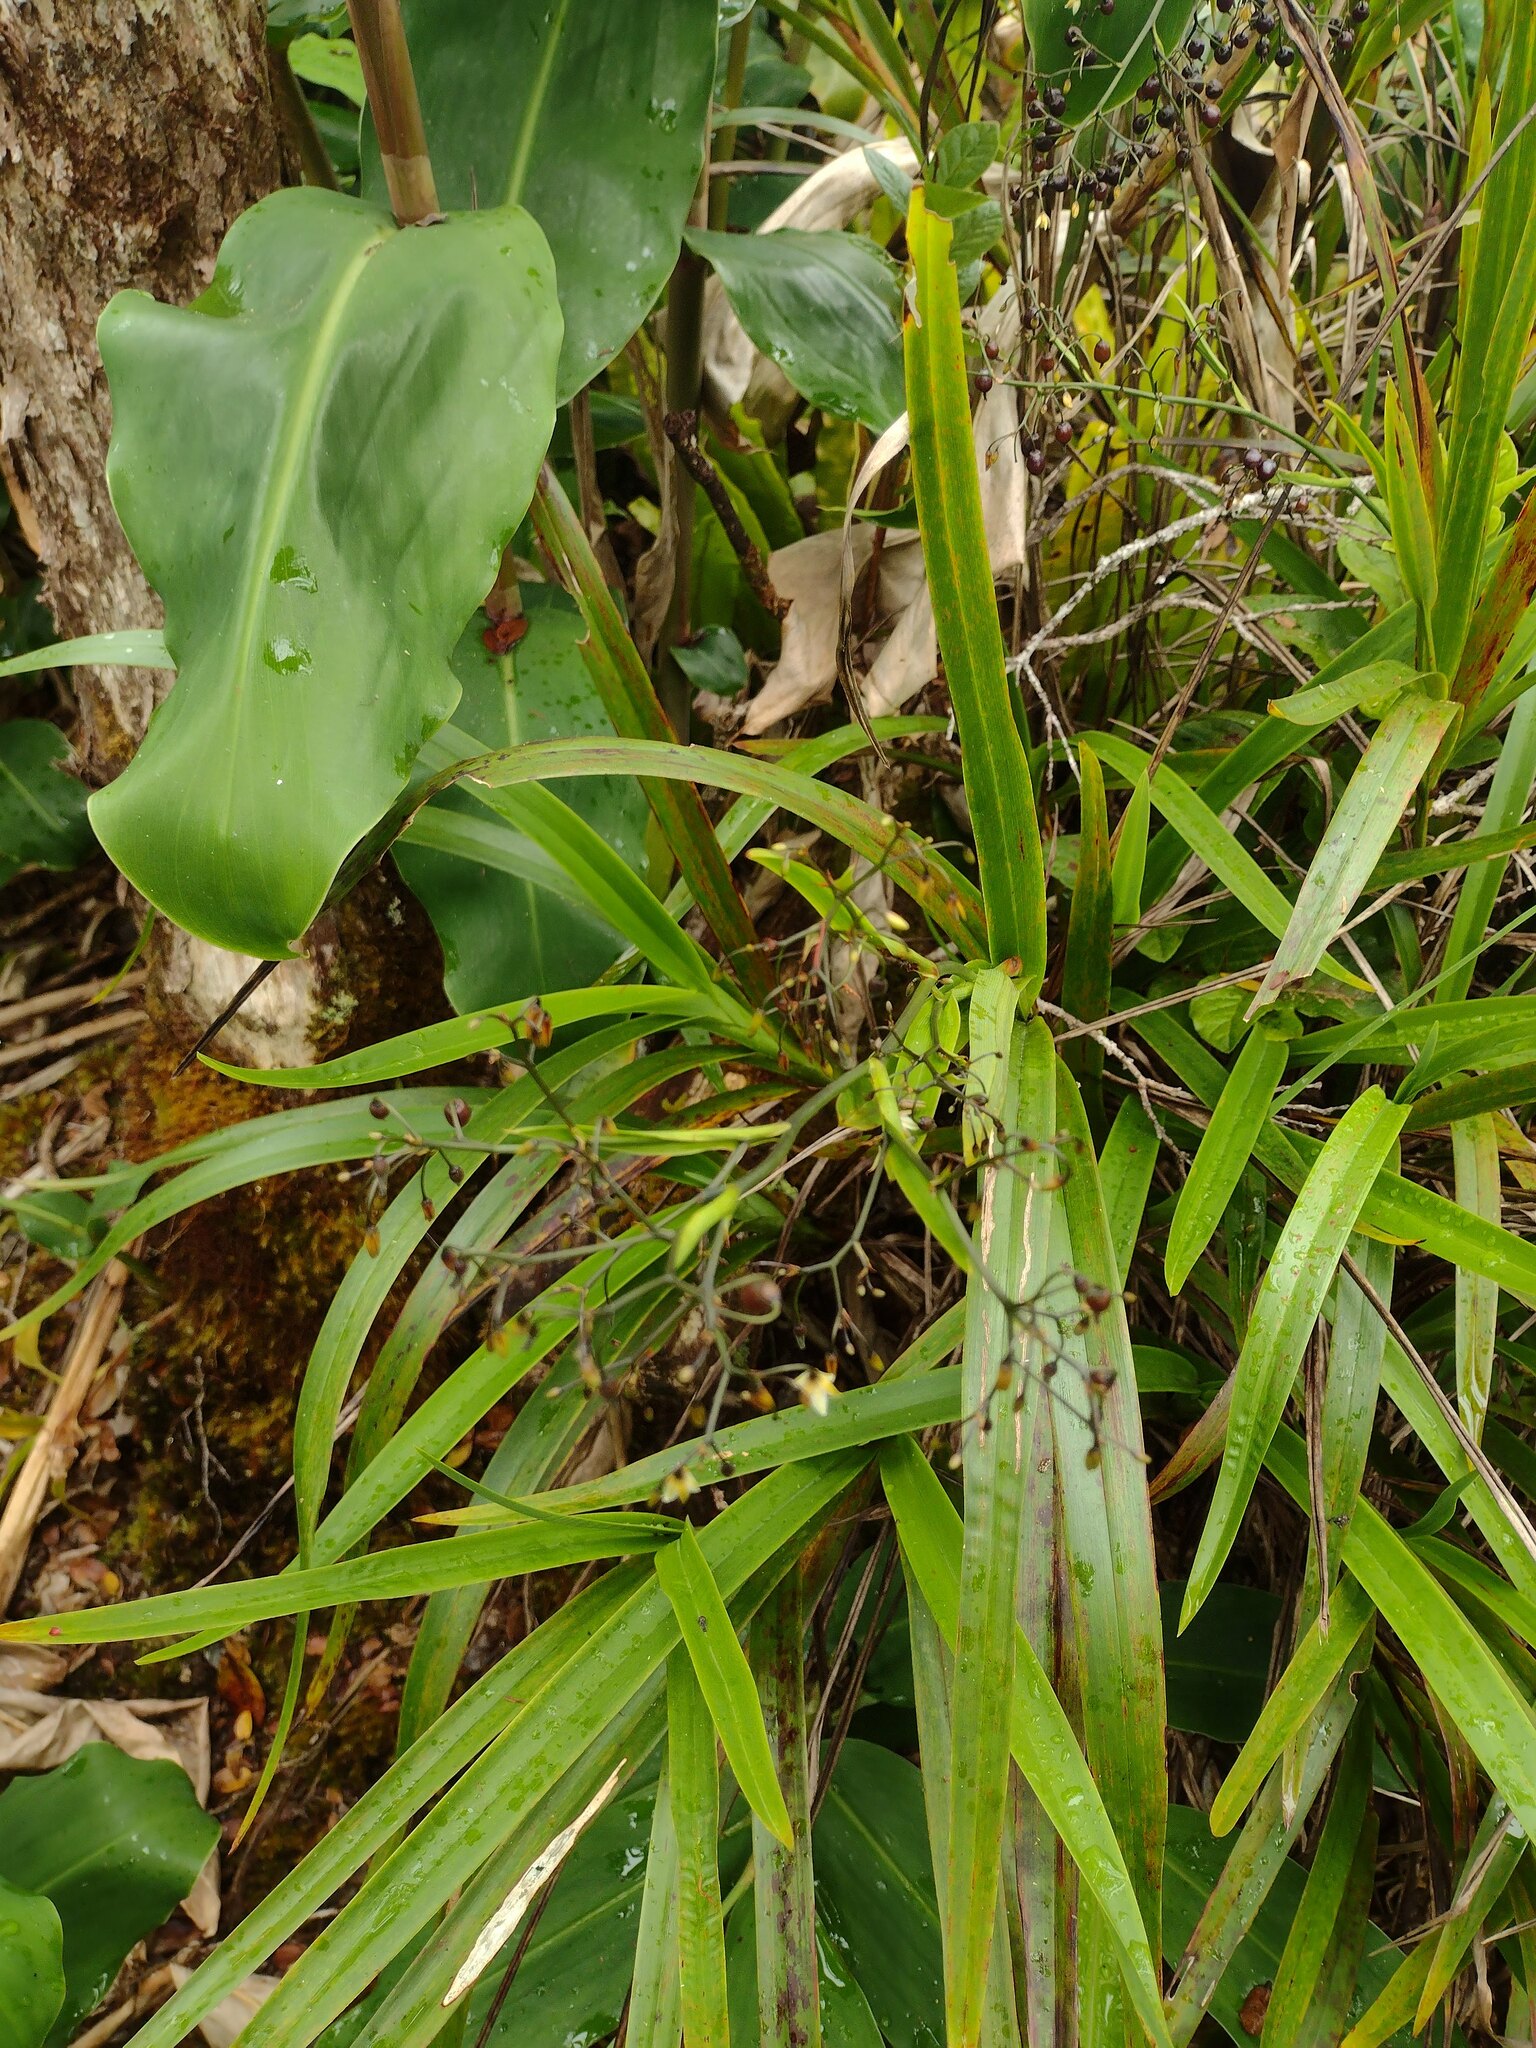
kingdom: Plantae
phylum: Tracheophyta
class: Liliopsida
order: Asparagales
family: Asphodelaceae
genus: Dianella
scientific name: Dianella sandwicensis
